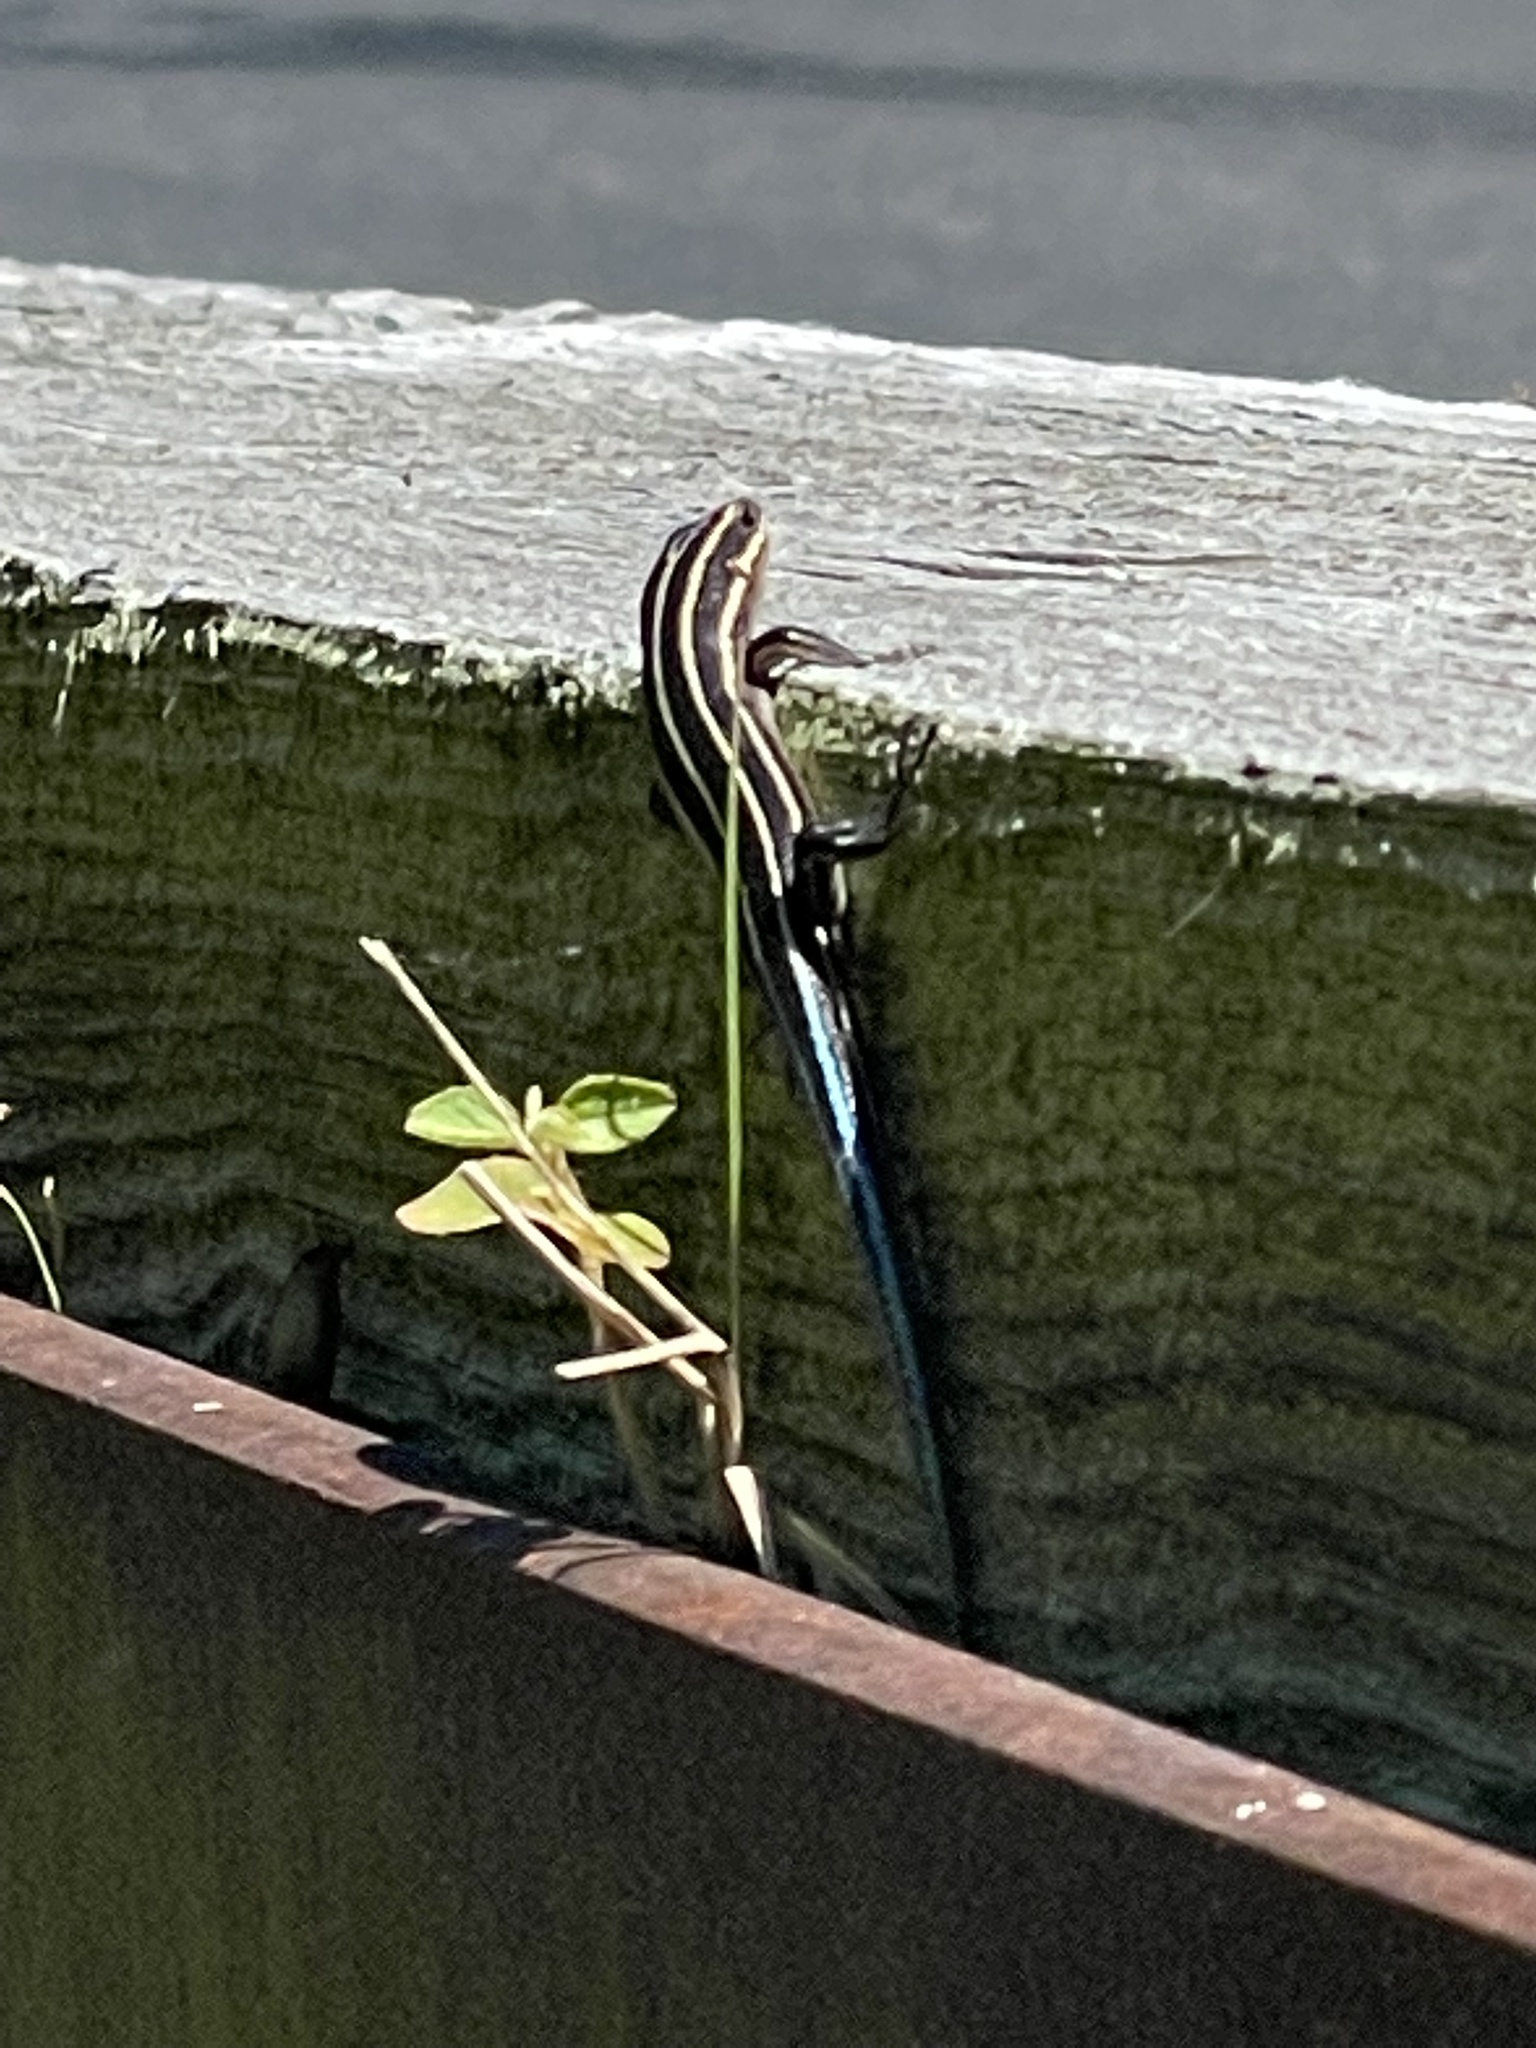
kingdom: Animalia
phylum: Chordata
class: Squamata
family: Scincidae
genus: Plestiodon
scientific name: Plestiodon fasciatus
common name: Five-lined skink
